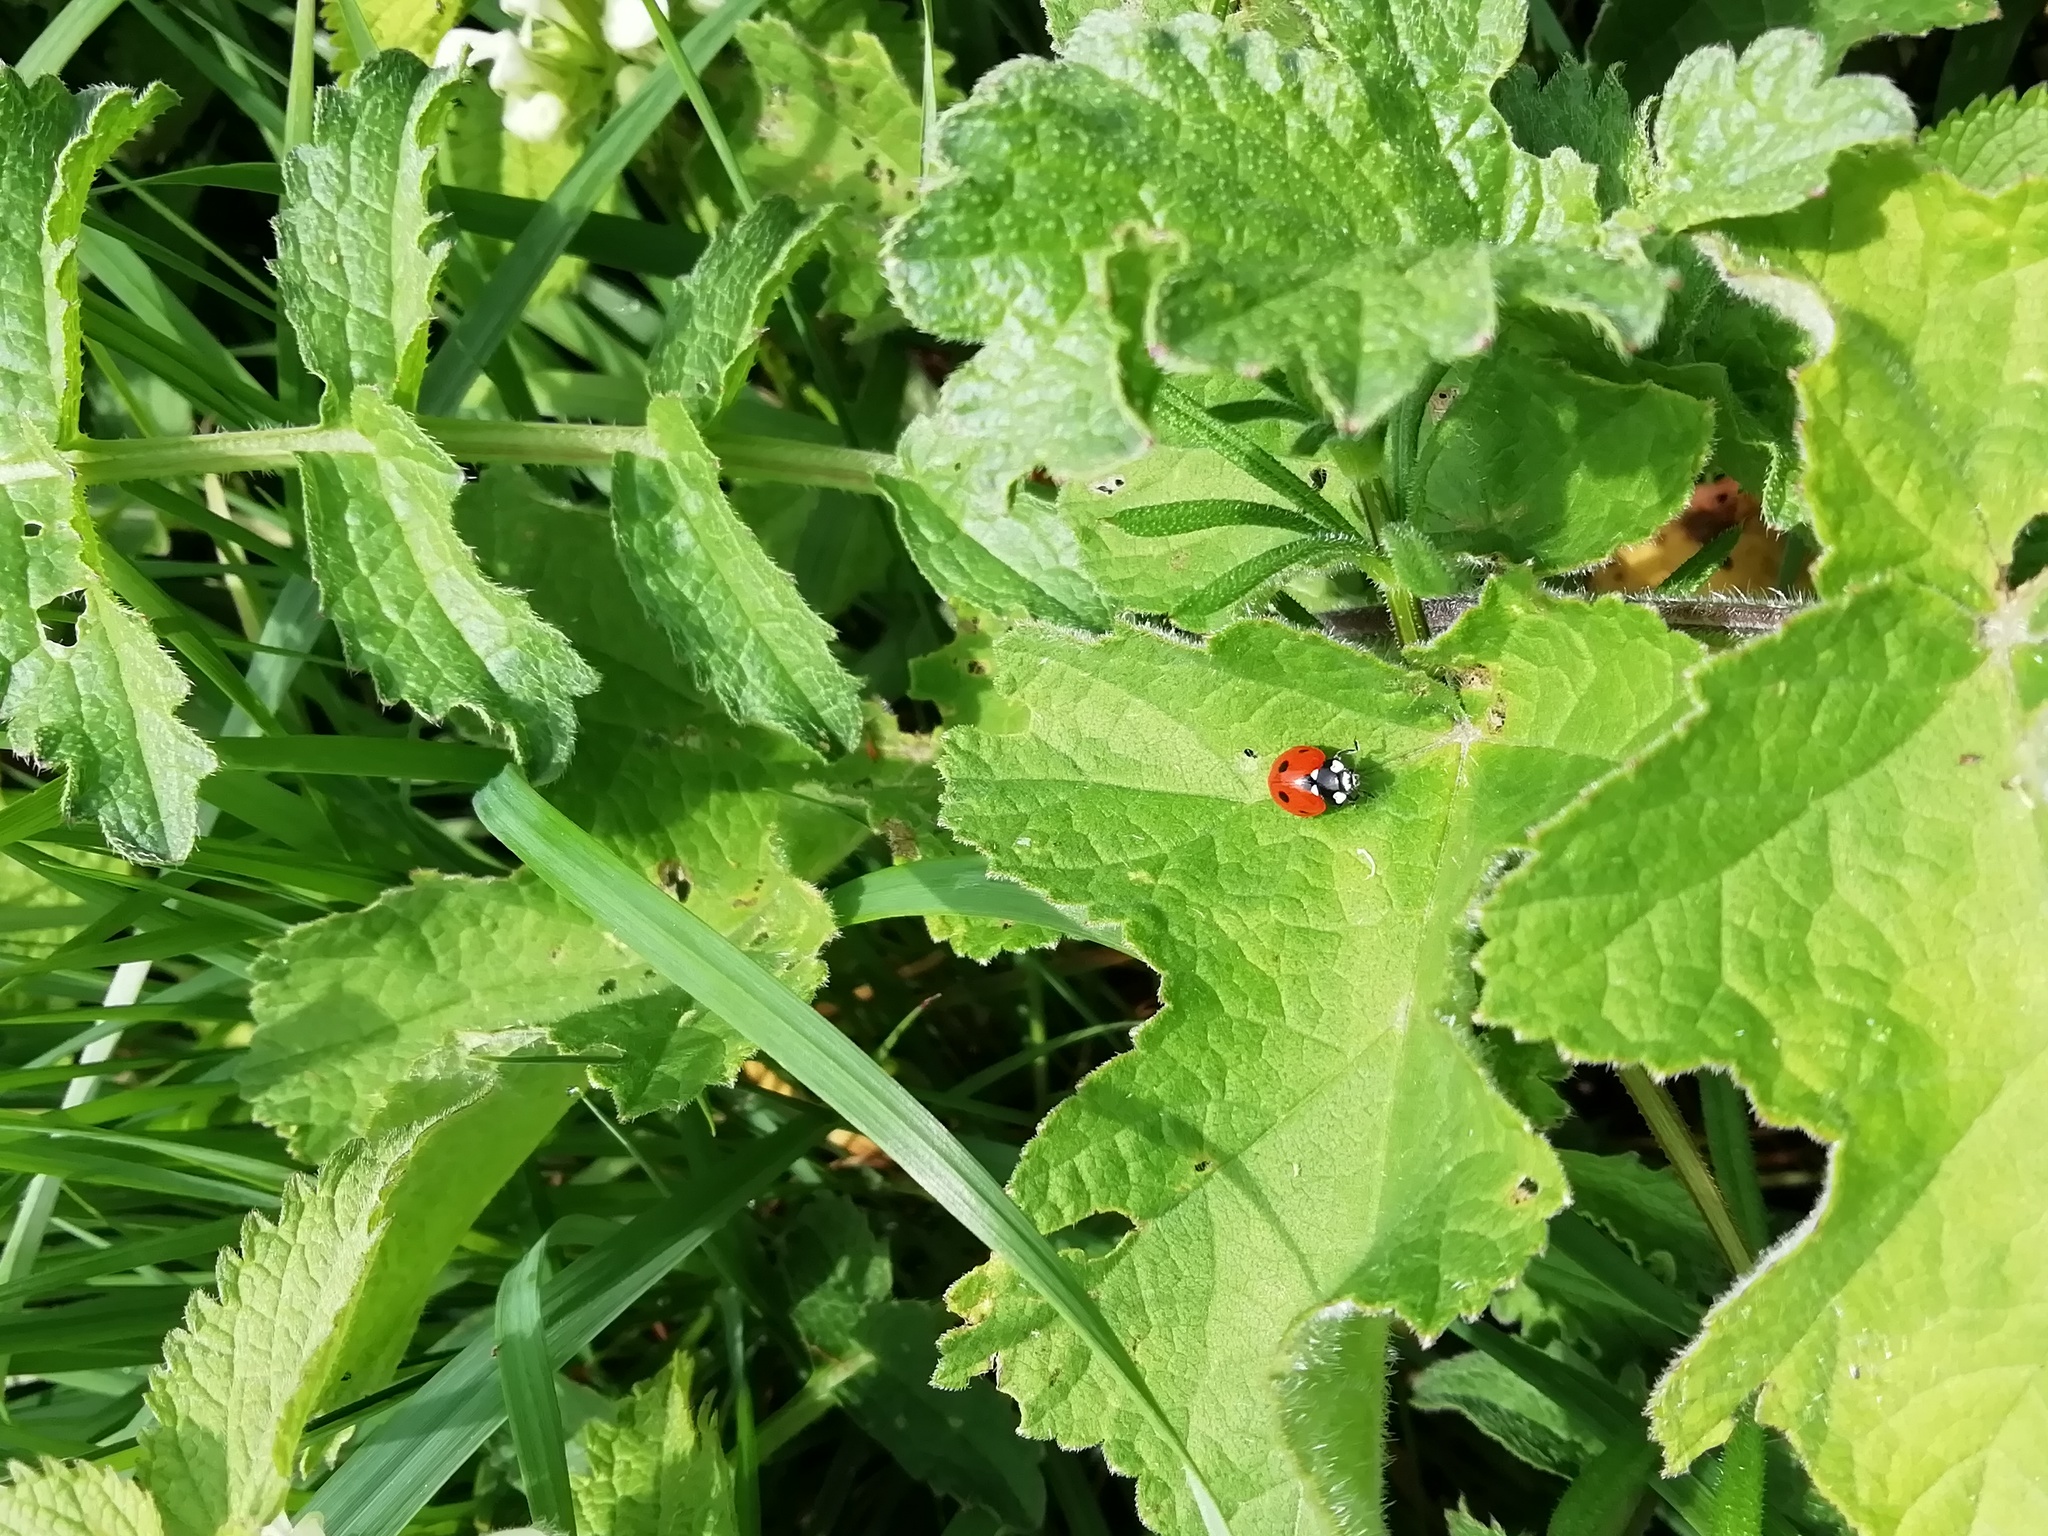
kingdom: Animalia
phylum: Arthropoda
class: Insecta
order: Coleoptera
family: Coccinellidae
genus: Coccinella
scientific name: Coccinella septempunctata
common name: Sevenspotted lady beetle
